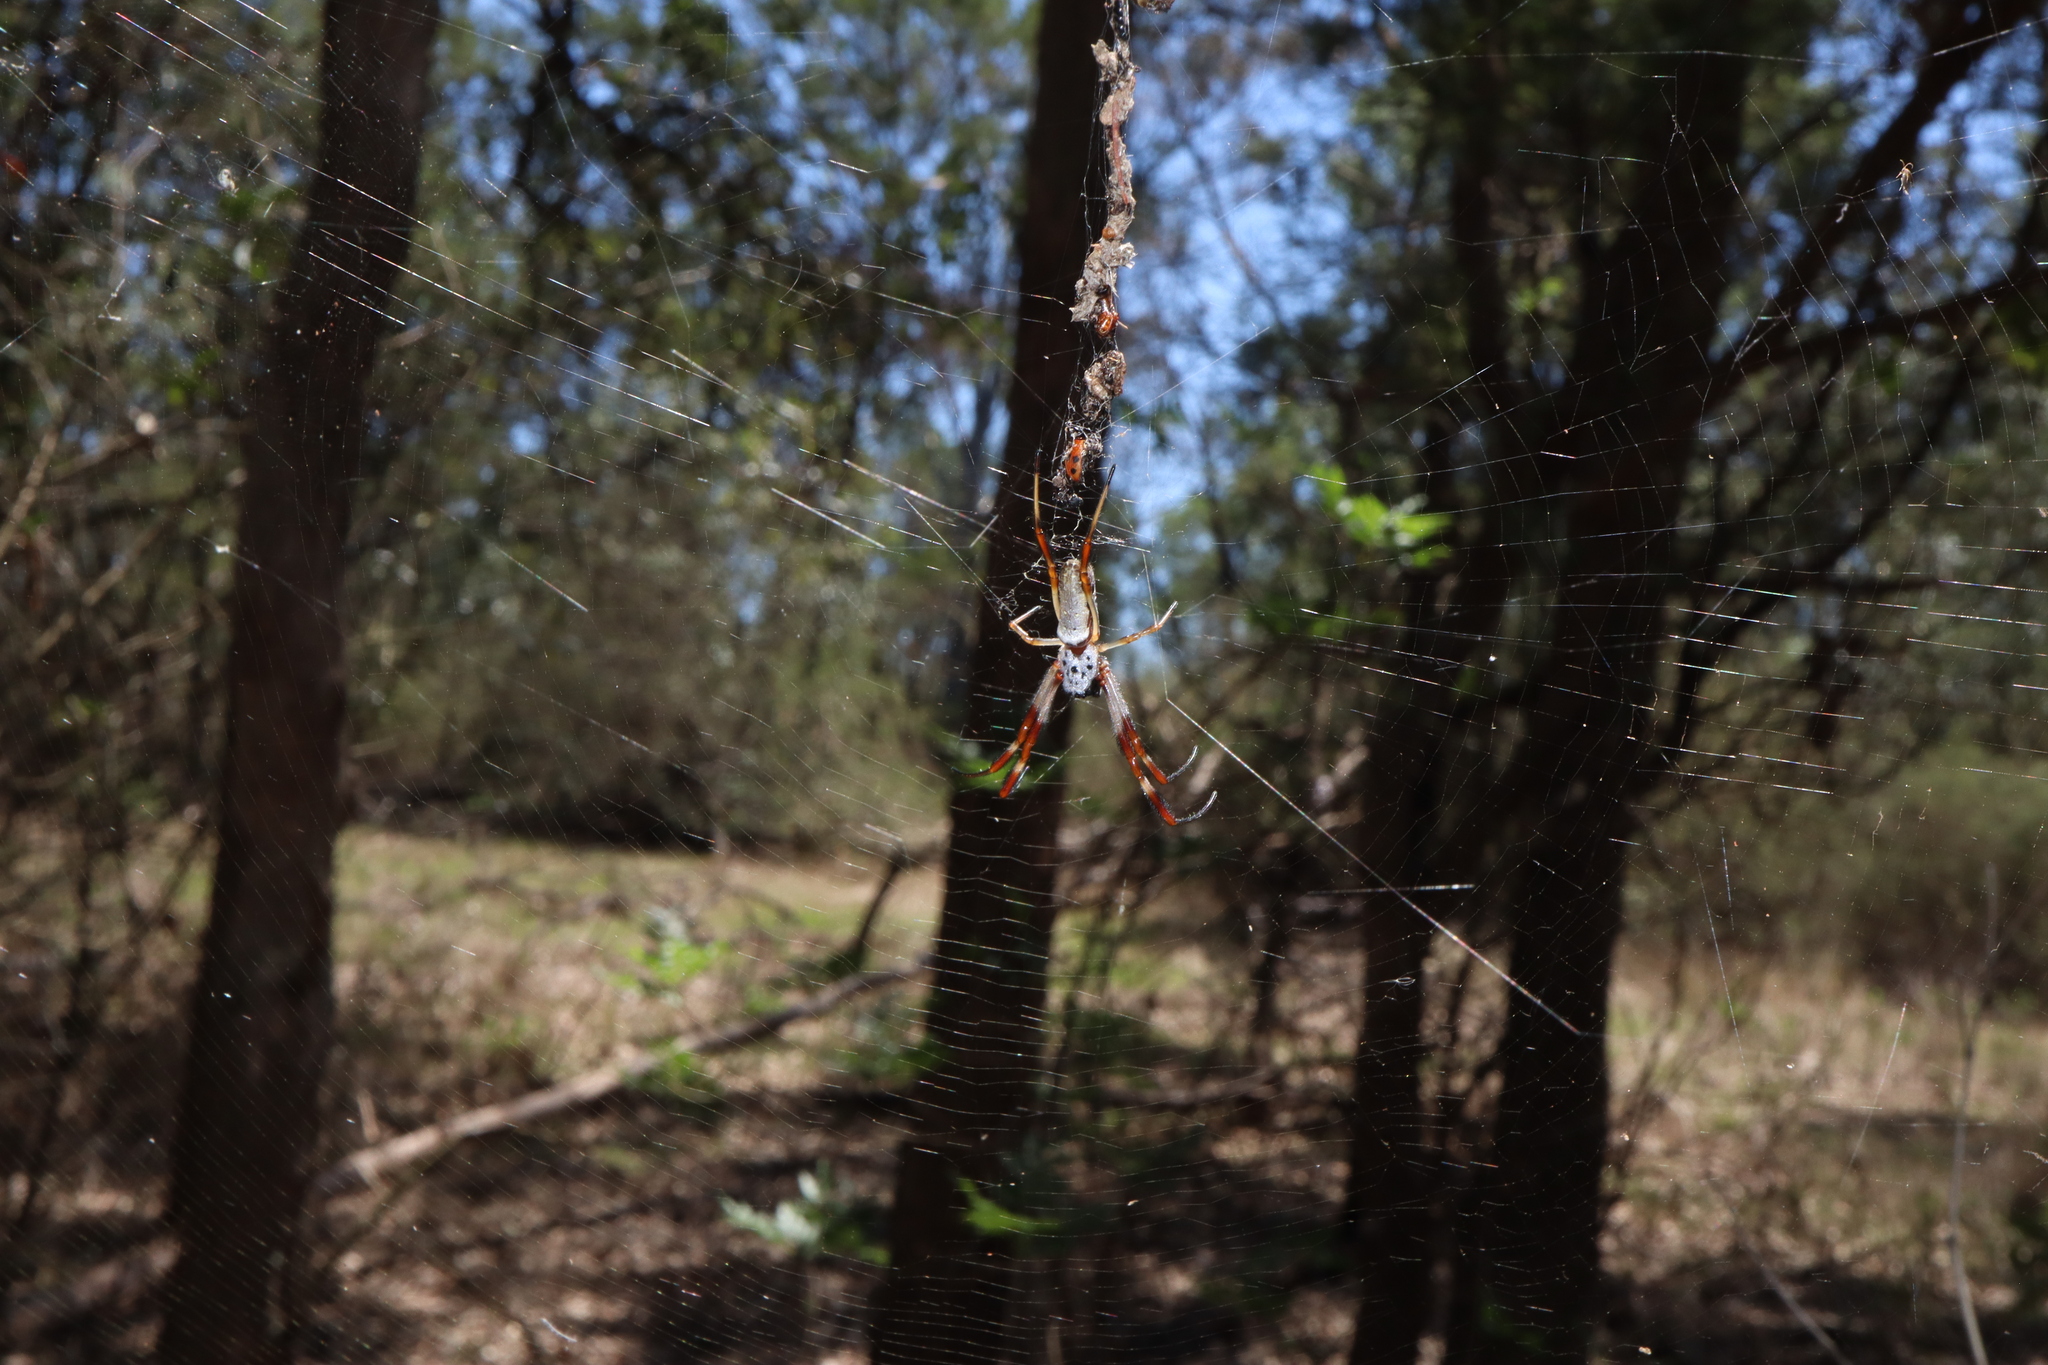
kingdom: Animalia
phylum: Arthropoda
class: Arachnida
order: Araneae
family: Araneidae
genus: Trichonephila
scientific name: Trichonephila edulis
